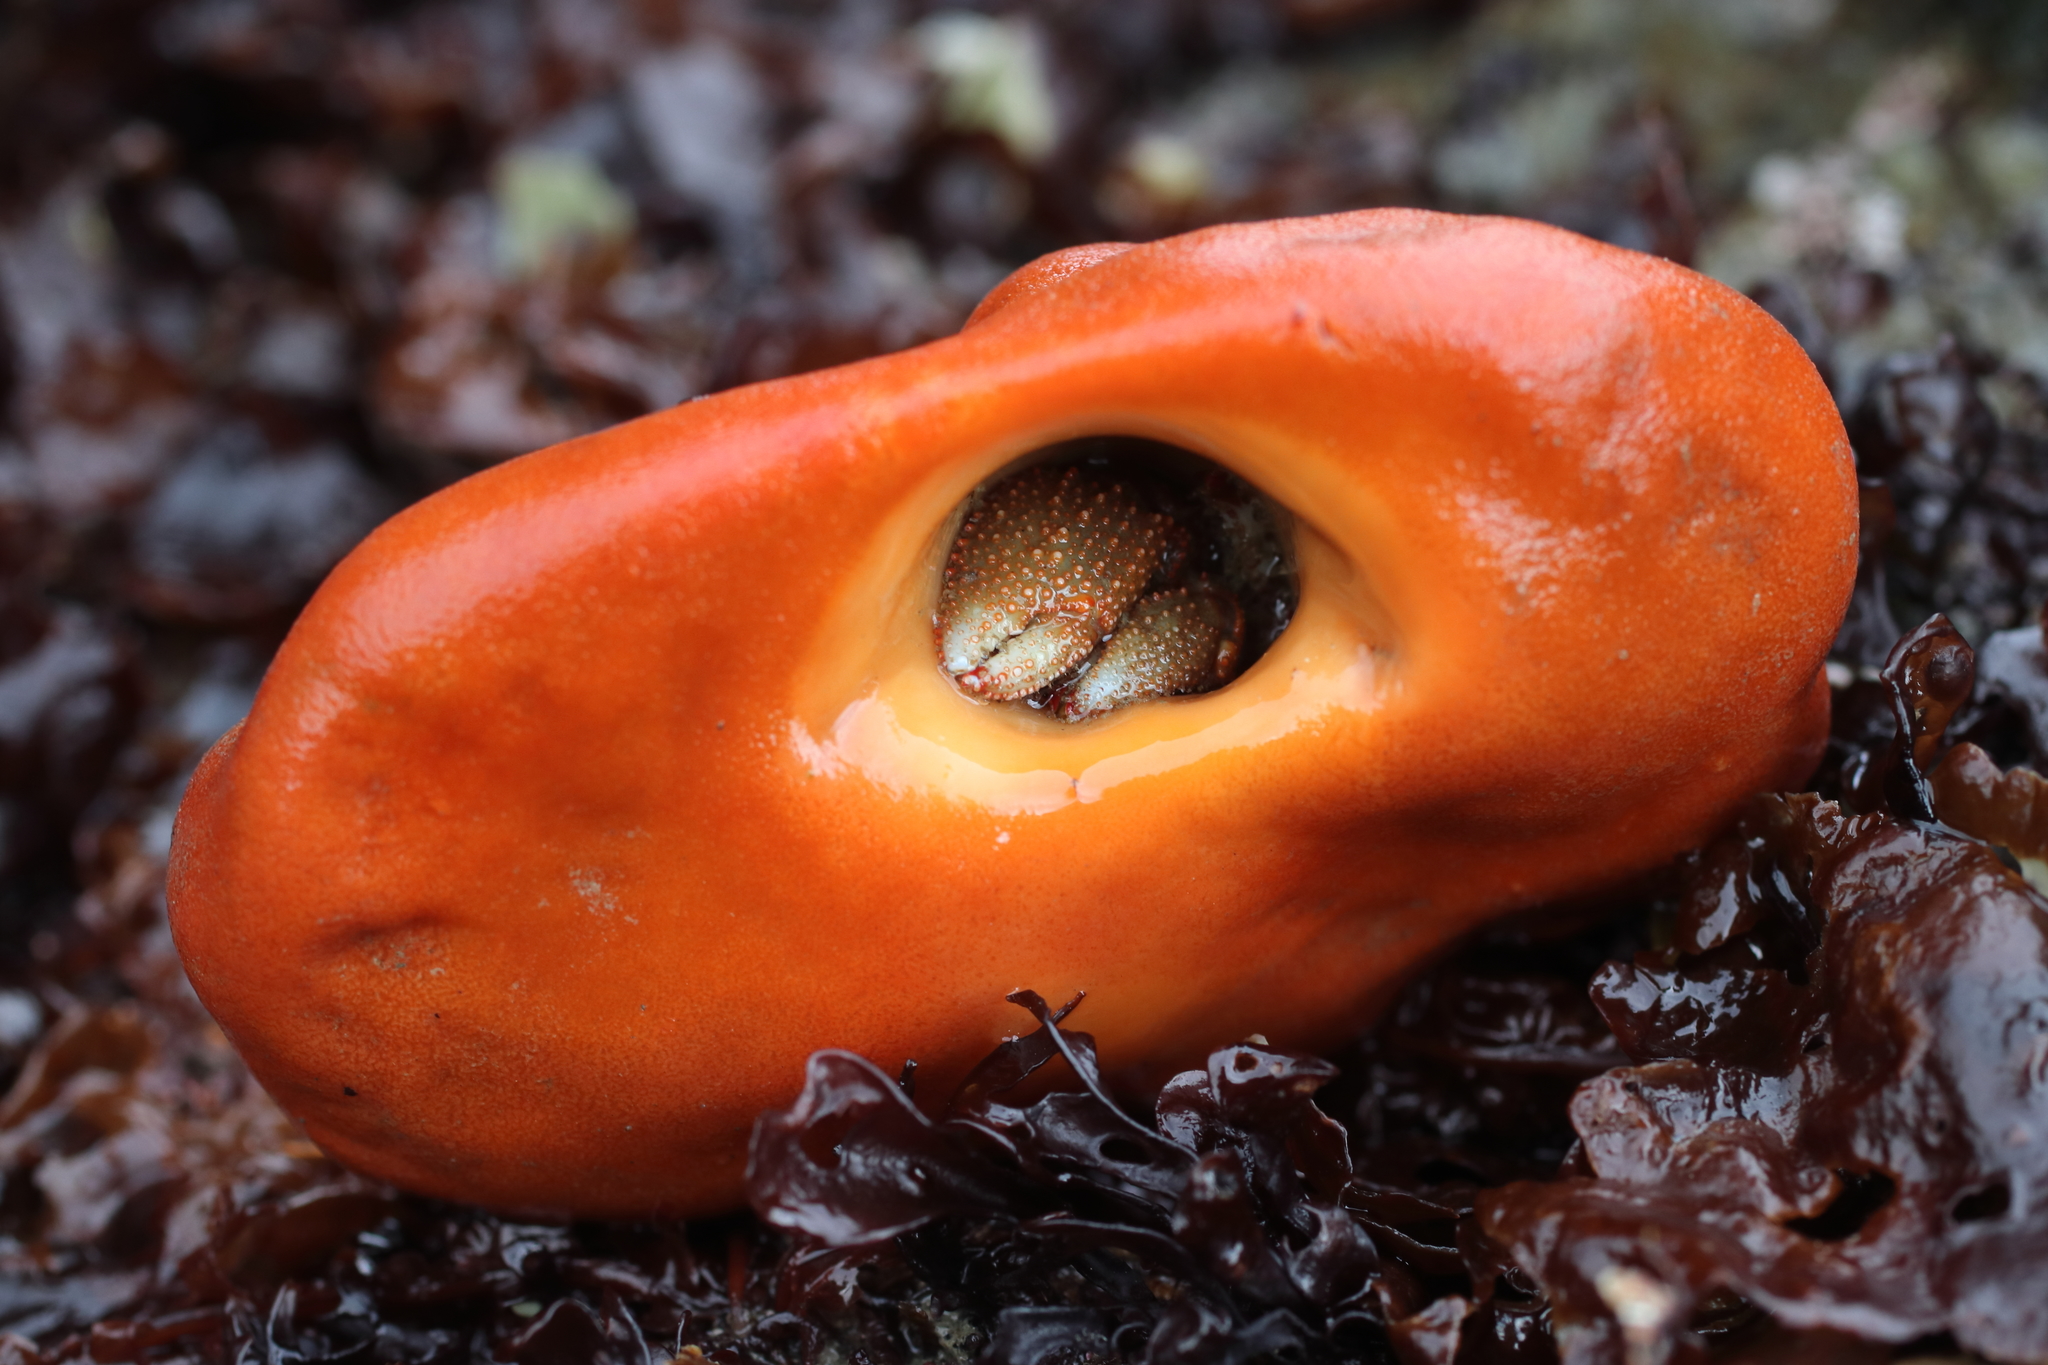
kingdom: Animalia
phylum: Porifera
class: Demospongiae
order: Suberitida
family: Suberitidae
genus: Suberites
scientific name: Suberites latus
